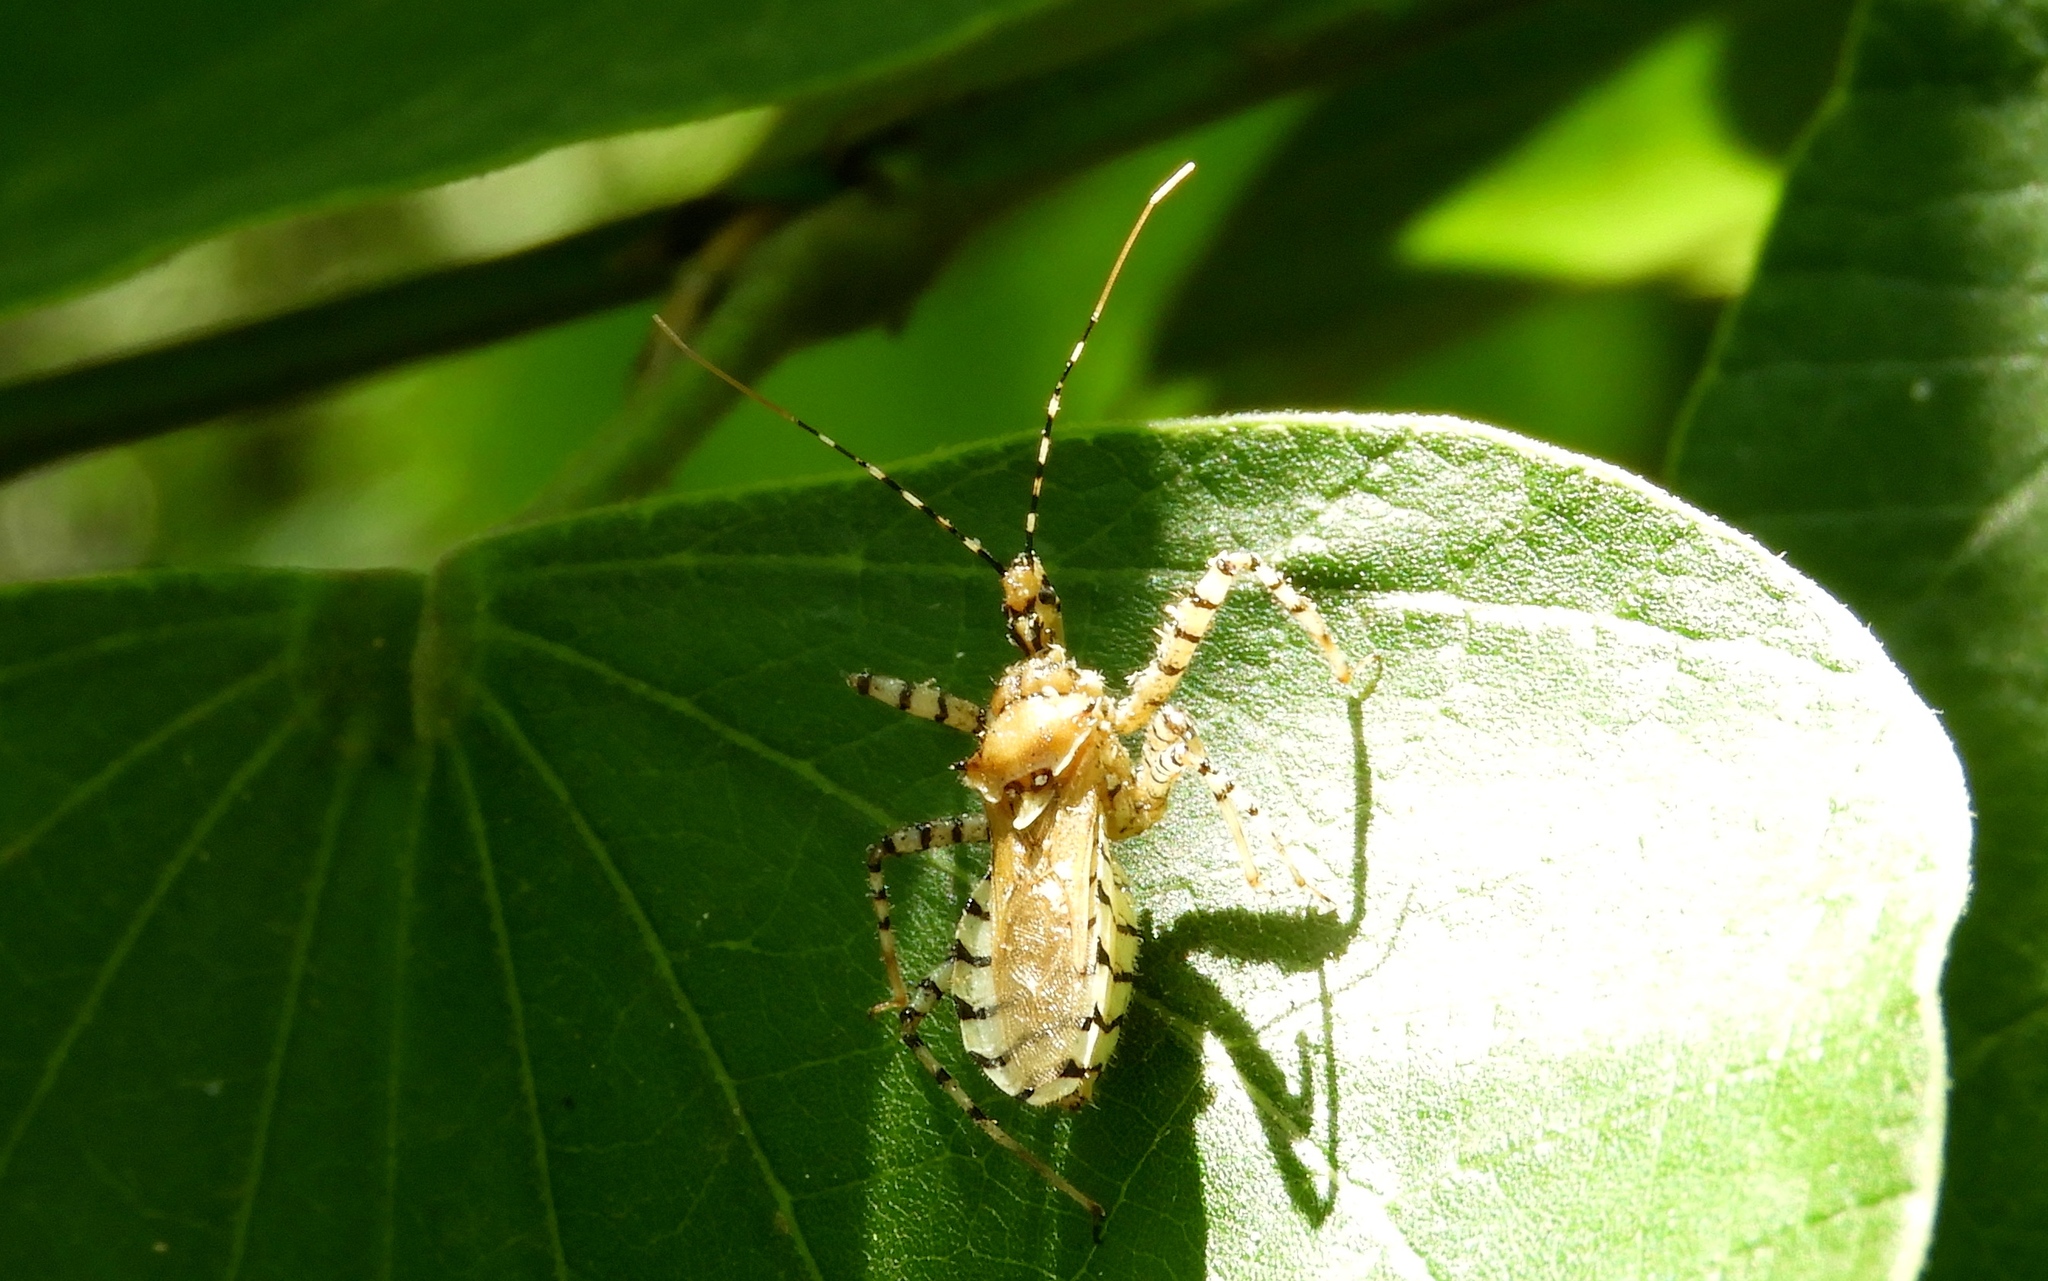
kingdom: Animalia
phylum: Arthropoda
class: Insecta
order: Hemiptera
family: Reduviidae
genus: Pselliopus
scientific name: Pselliopus latispina
